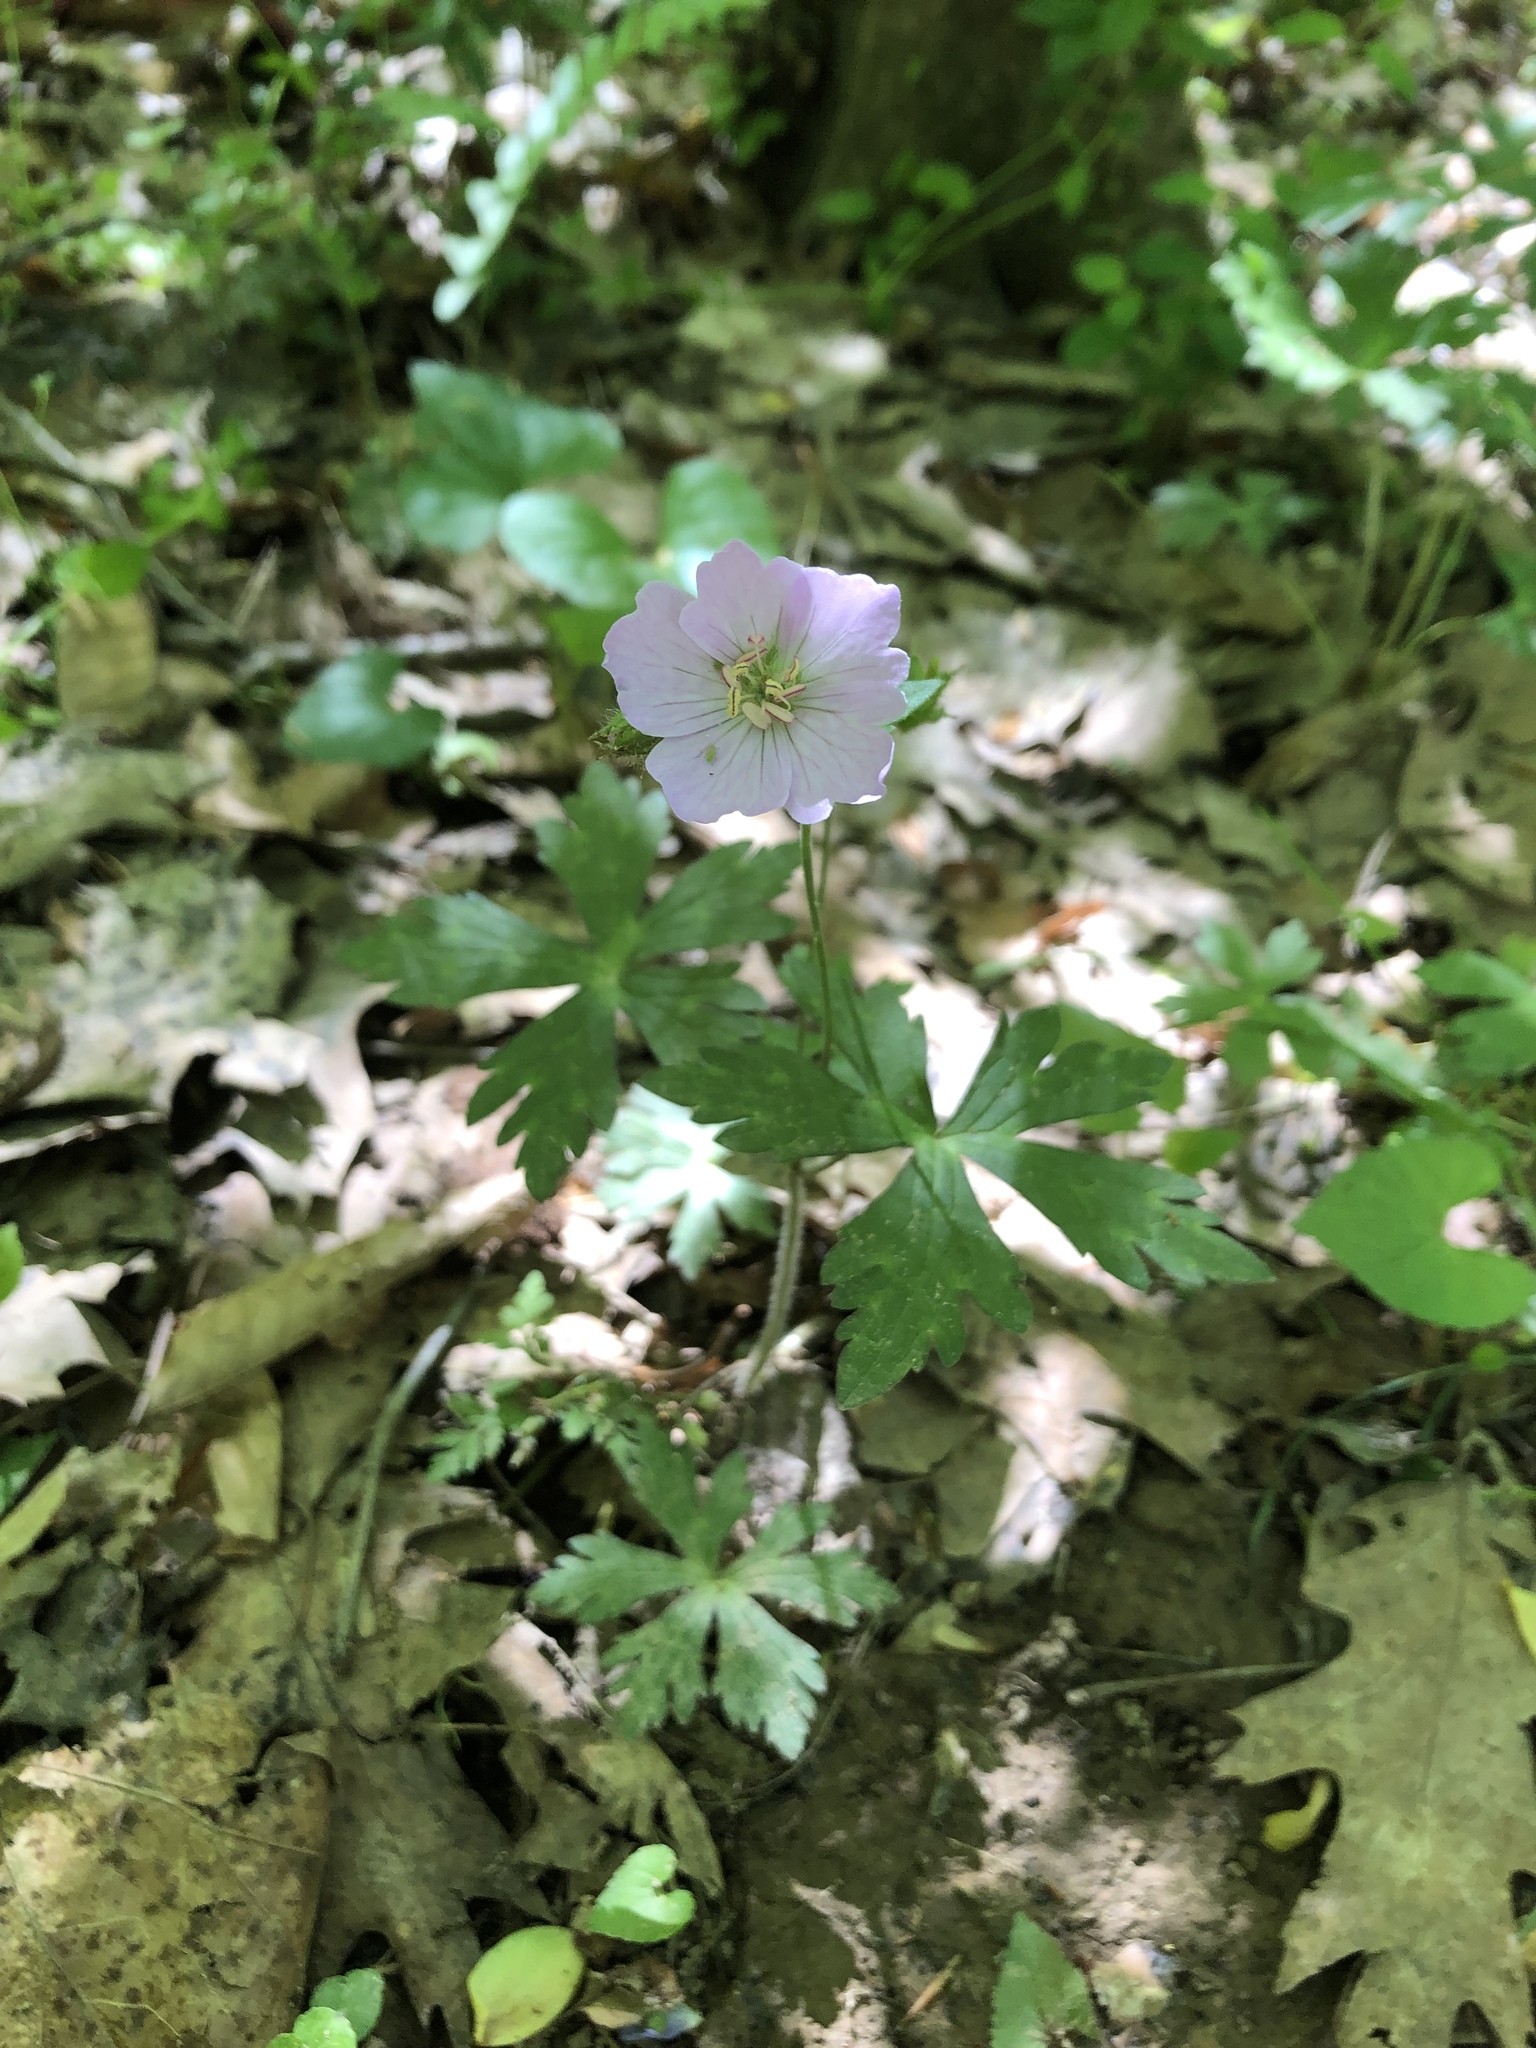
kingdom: Plantae
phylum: Tracheophyta
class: Magnoliopsida
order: Geraniales
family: Geraniaceae
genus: Geranium
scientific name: Geranium maculatum
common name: Spotted geranium
